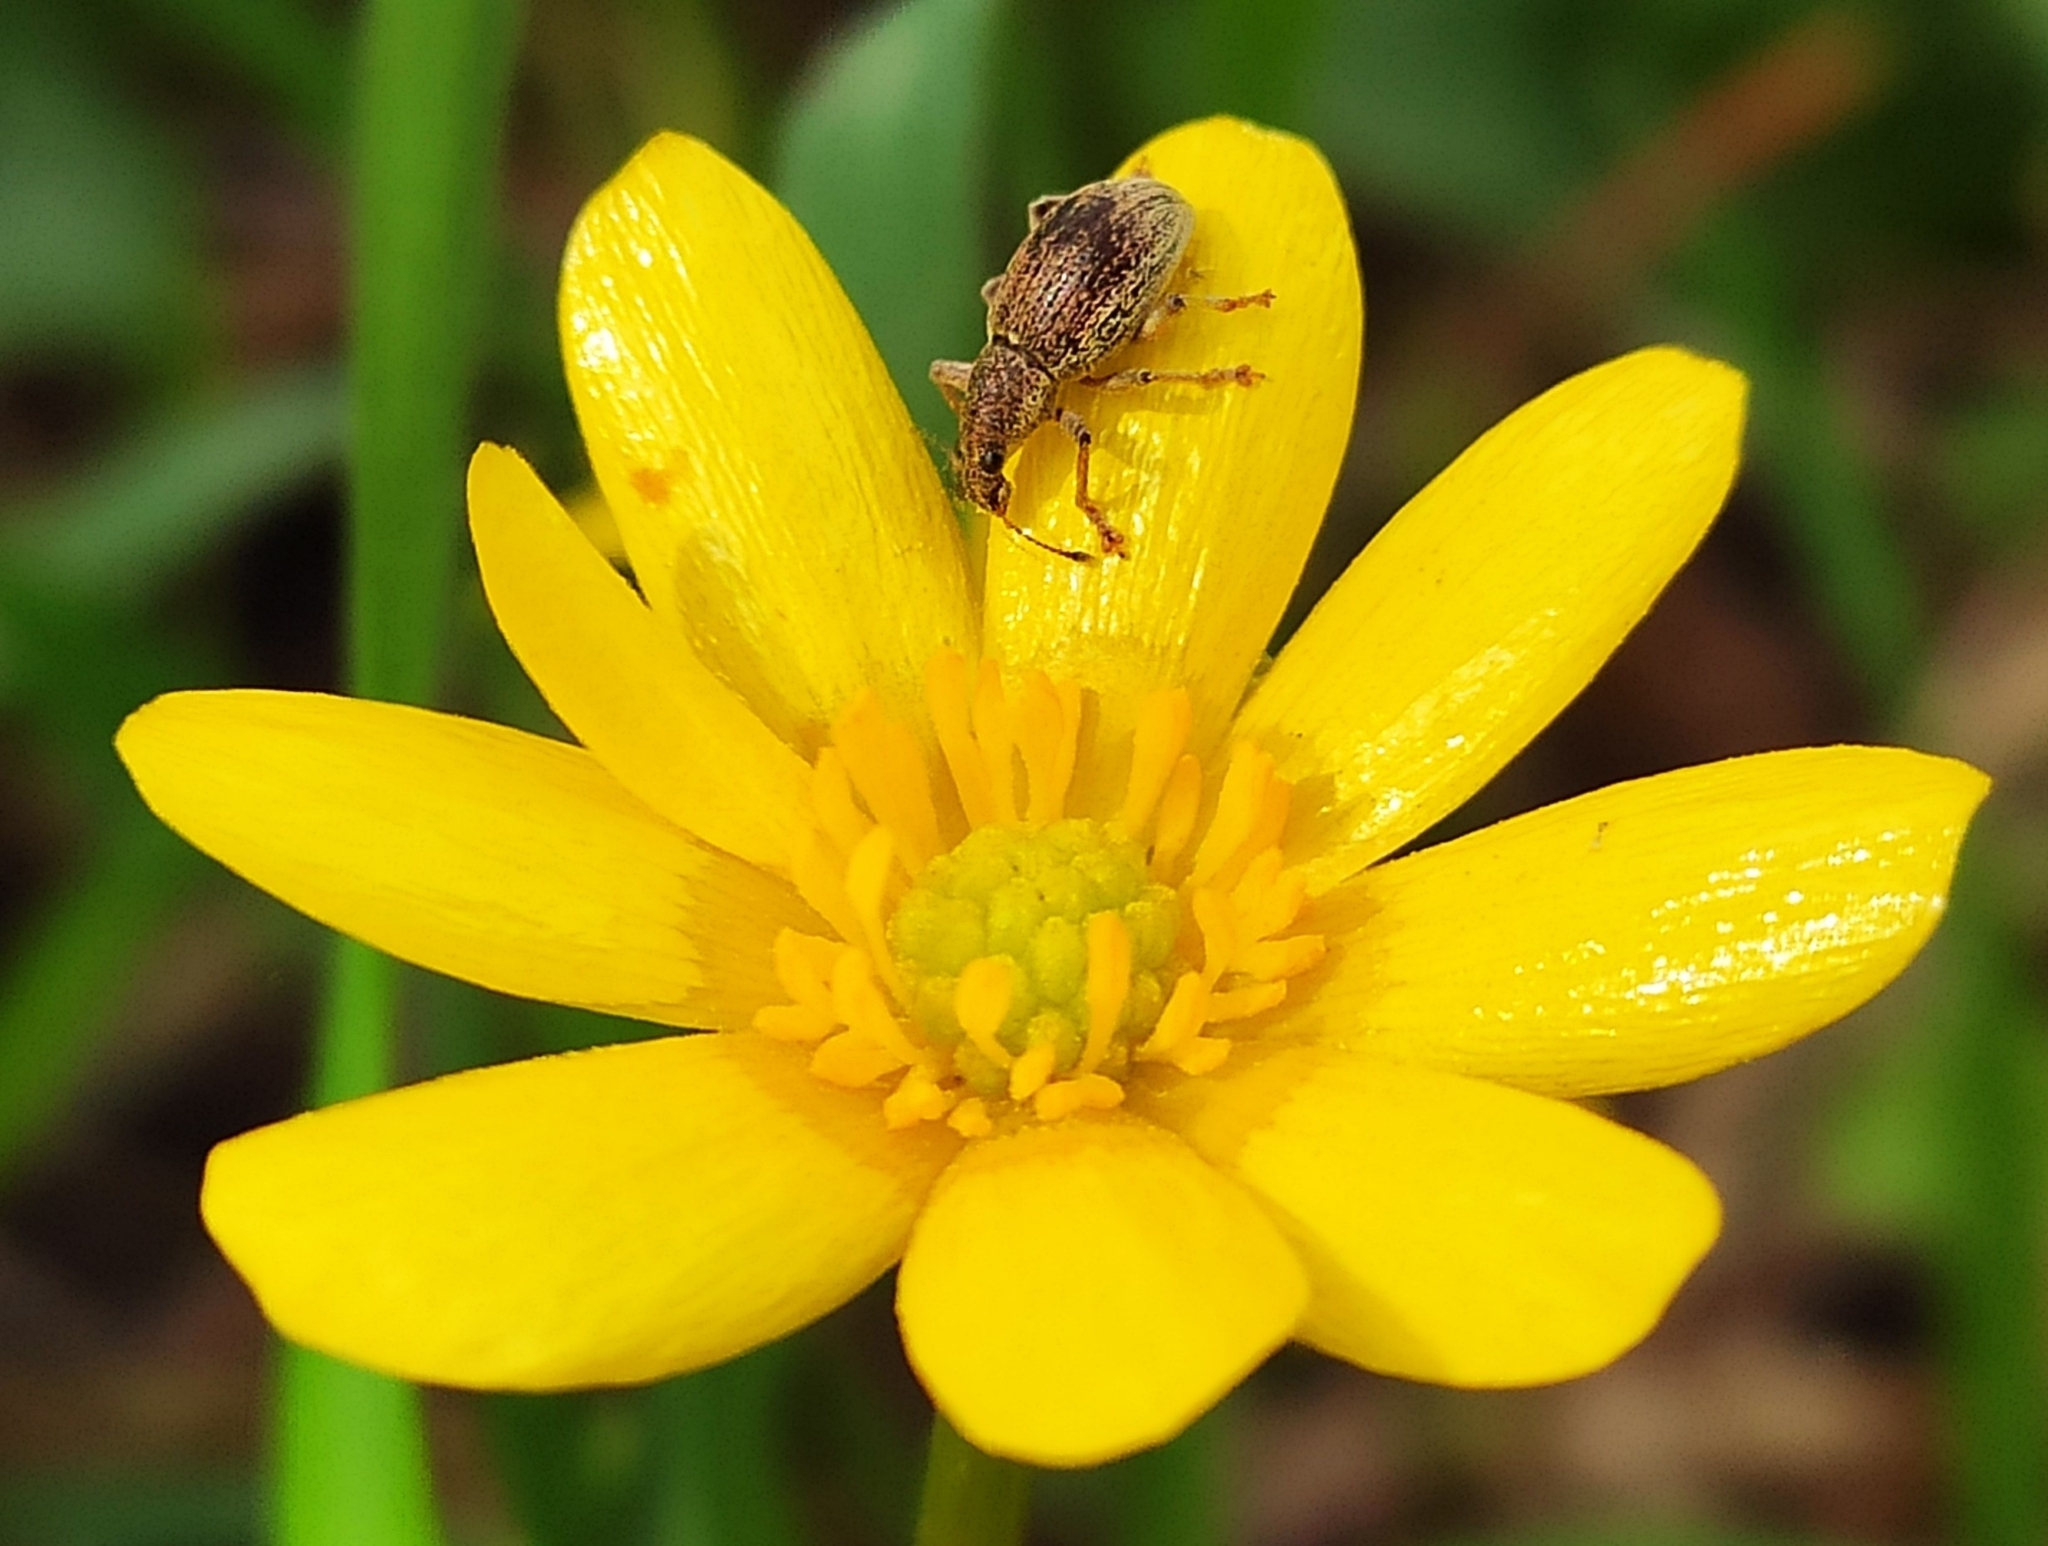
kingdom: Animalia
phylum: Arthropoda
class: Insecta
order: Coleoptera
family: Curculionidae
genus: Sciaphobus
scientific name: Sciaphobus squalidus
